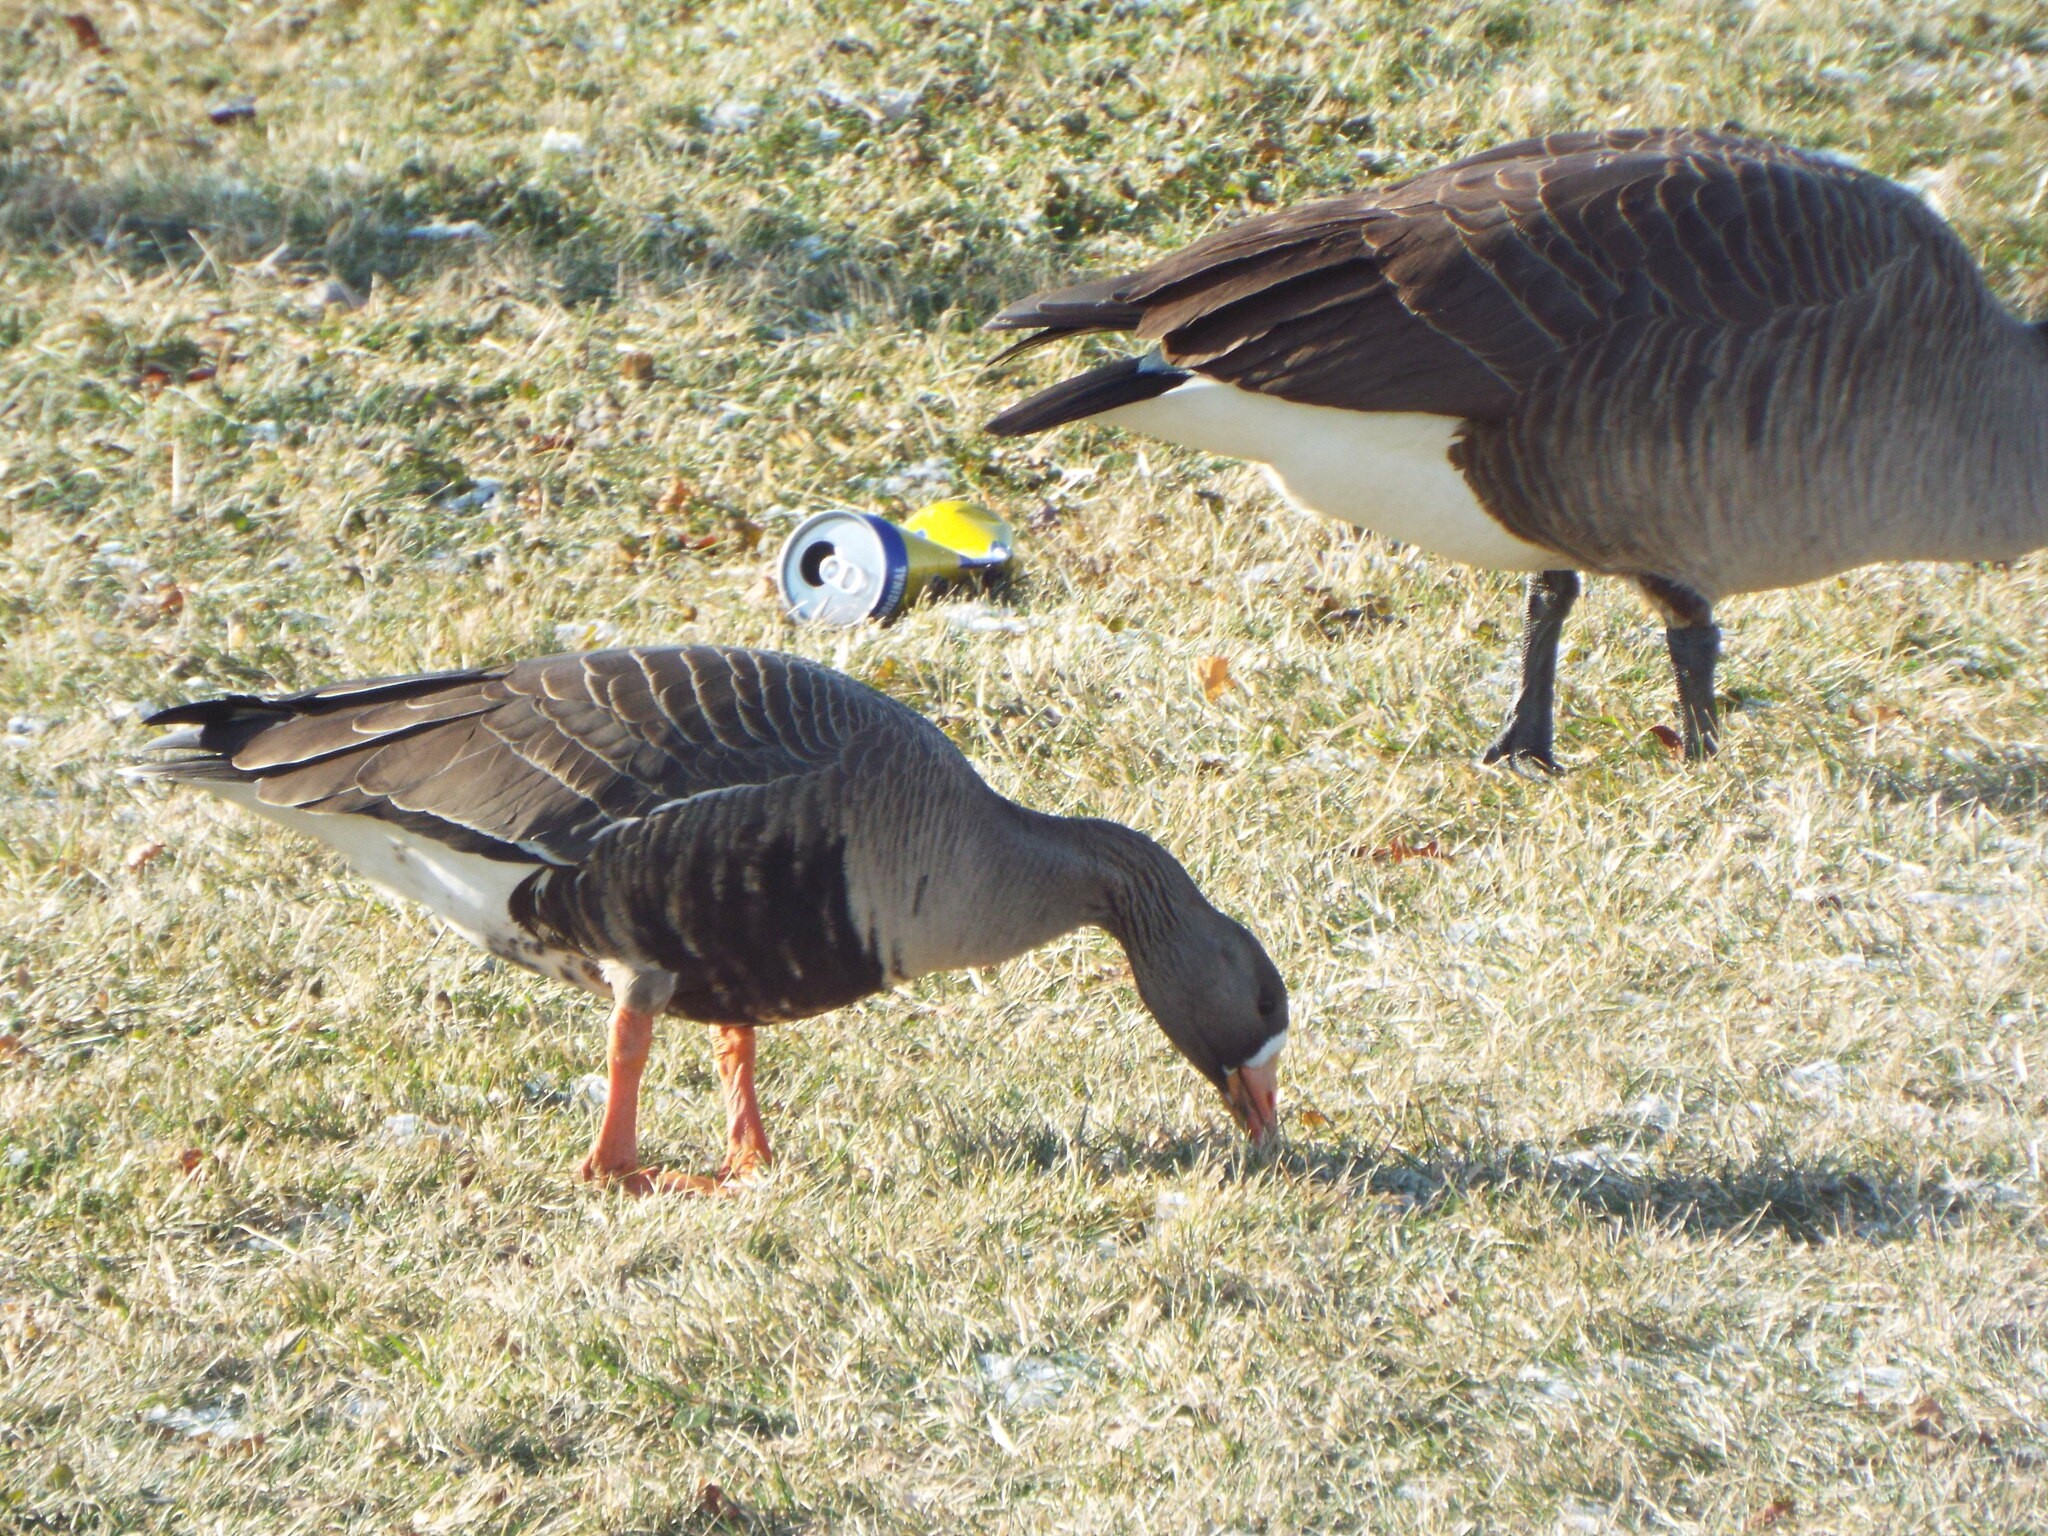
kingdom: Animalia
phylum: Chordata
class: Aves
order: Anseriformes
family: Anatidae
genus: Anser
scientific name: Anser albifrons
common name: Greater white-fronted goose
